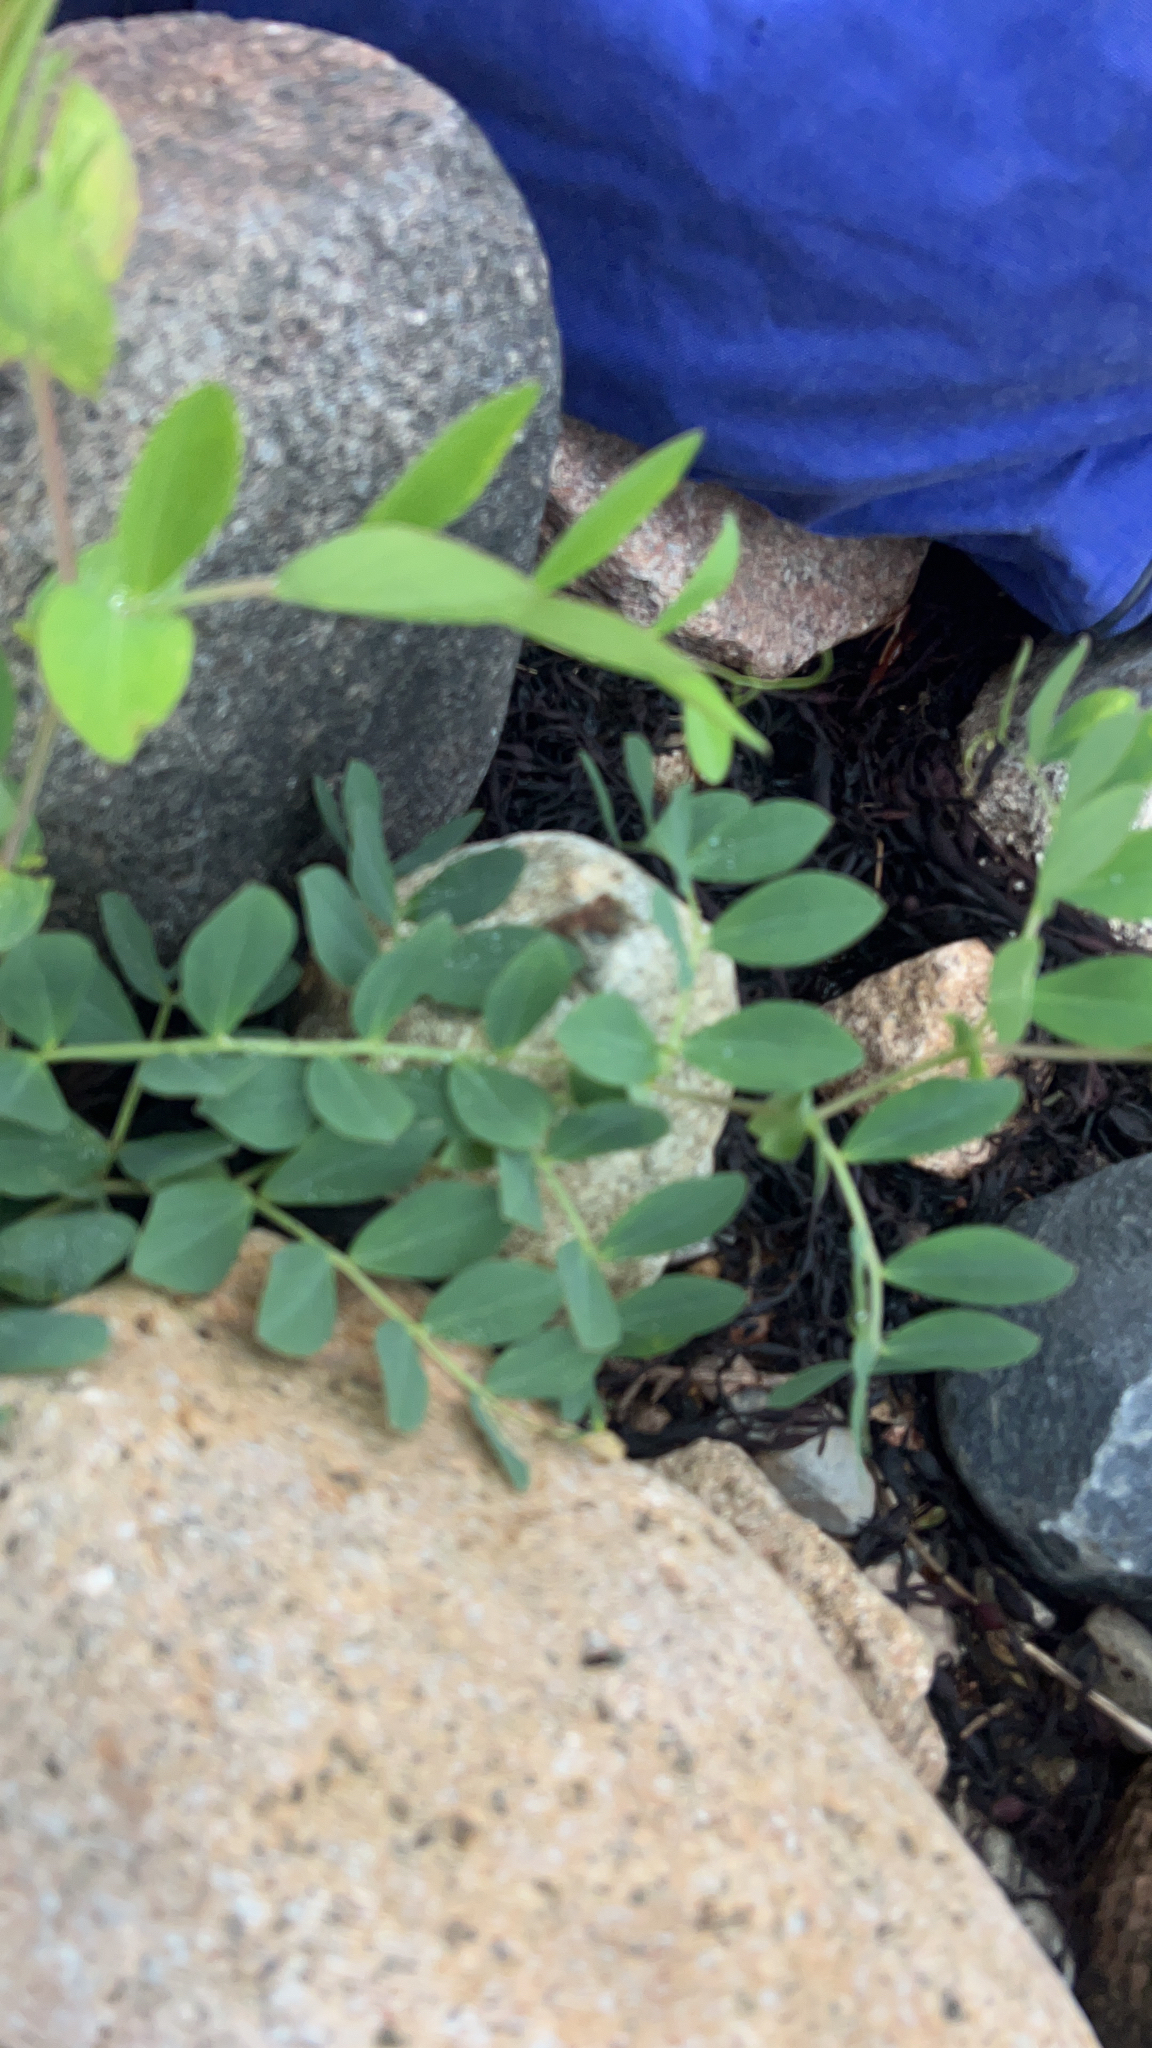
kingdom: Plantae
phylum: Tracheophyta
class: Magnoliopsida
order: Fabales
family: Fabaceae
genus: Lathyrus
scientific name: Lathyrus japonicus
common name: Sea pea
